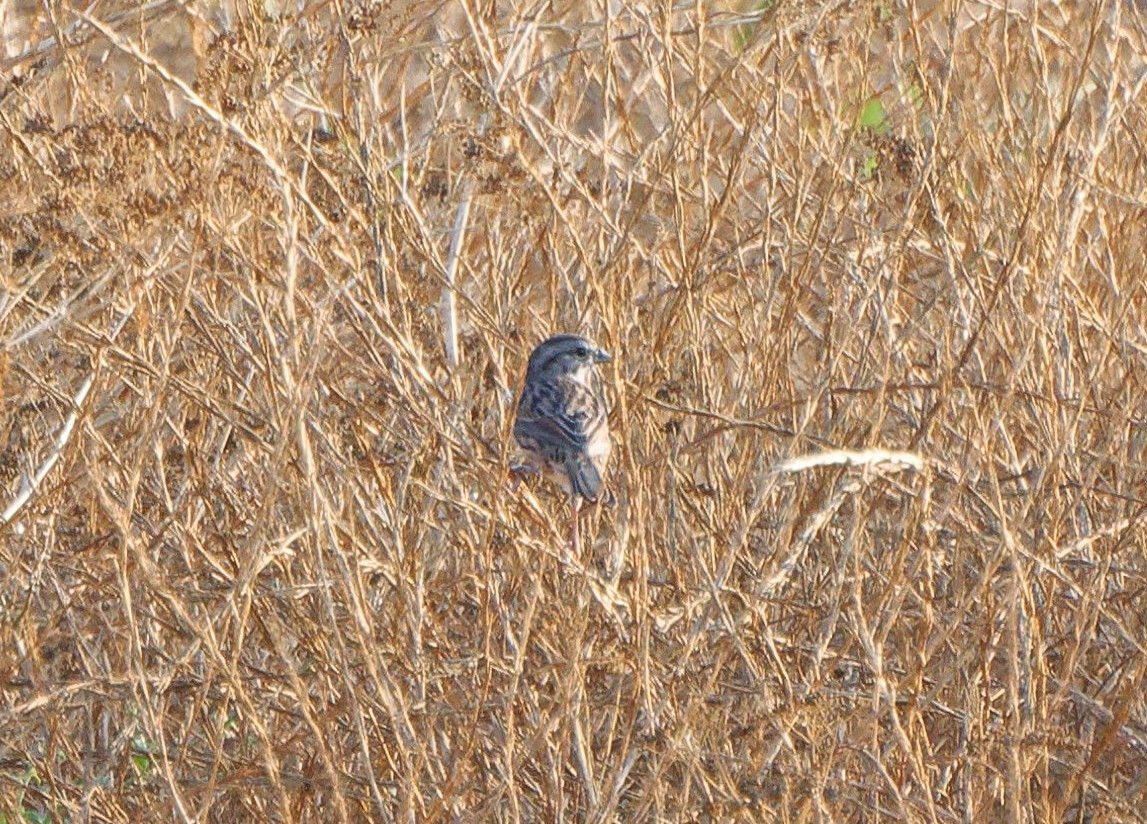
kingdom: Animalia
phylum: Chordata
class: Aves
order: Passeriformes
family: Passerellidae
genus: Melospiza
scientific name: Melospiza melodia
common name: Song sparrow
